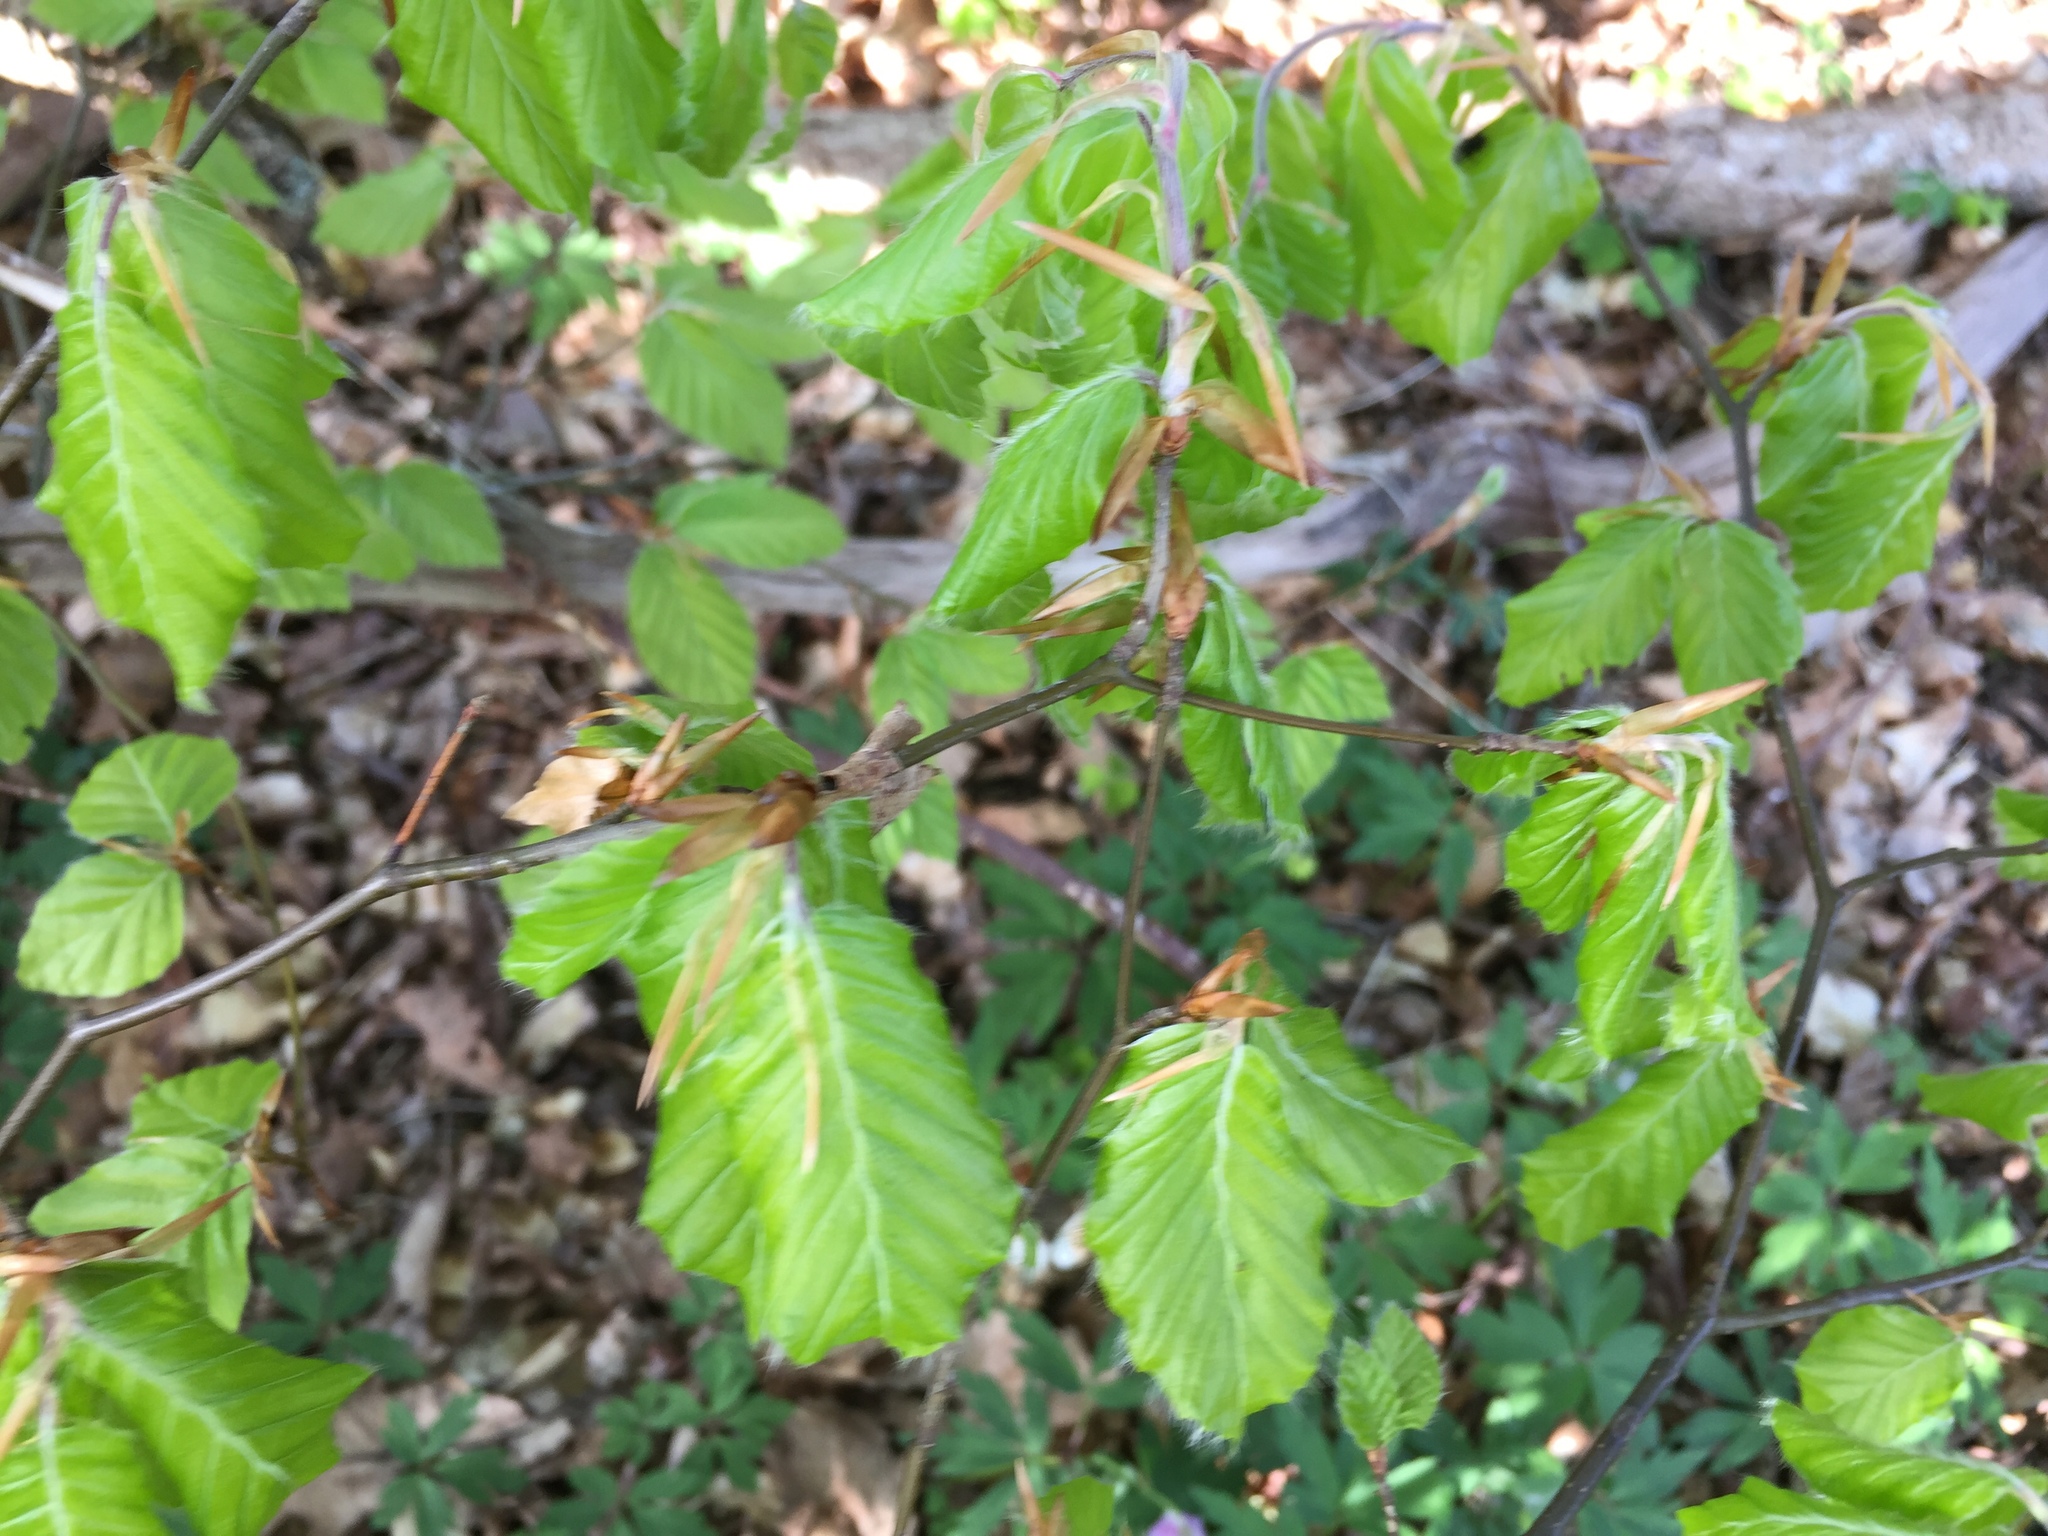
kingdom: Plantae
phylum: Tracheophyta
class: Magnoliopsida
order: Fagales
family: Fagaceae
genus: Fagus
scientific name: Fagus sylvatica
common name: Beech
